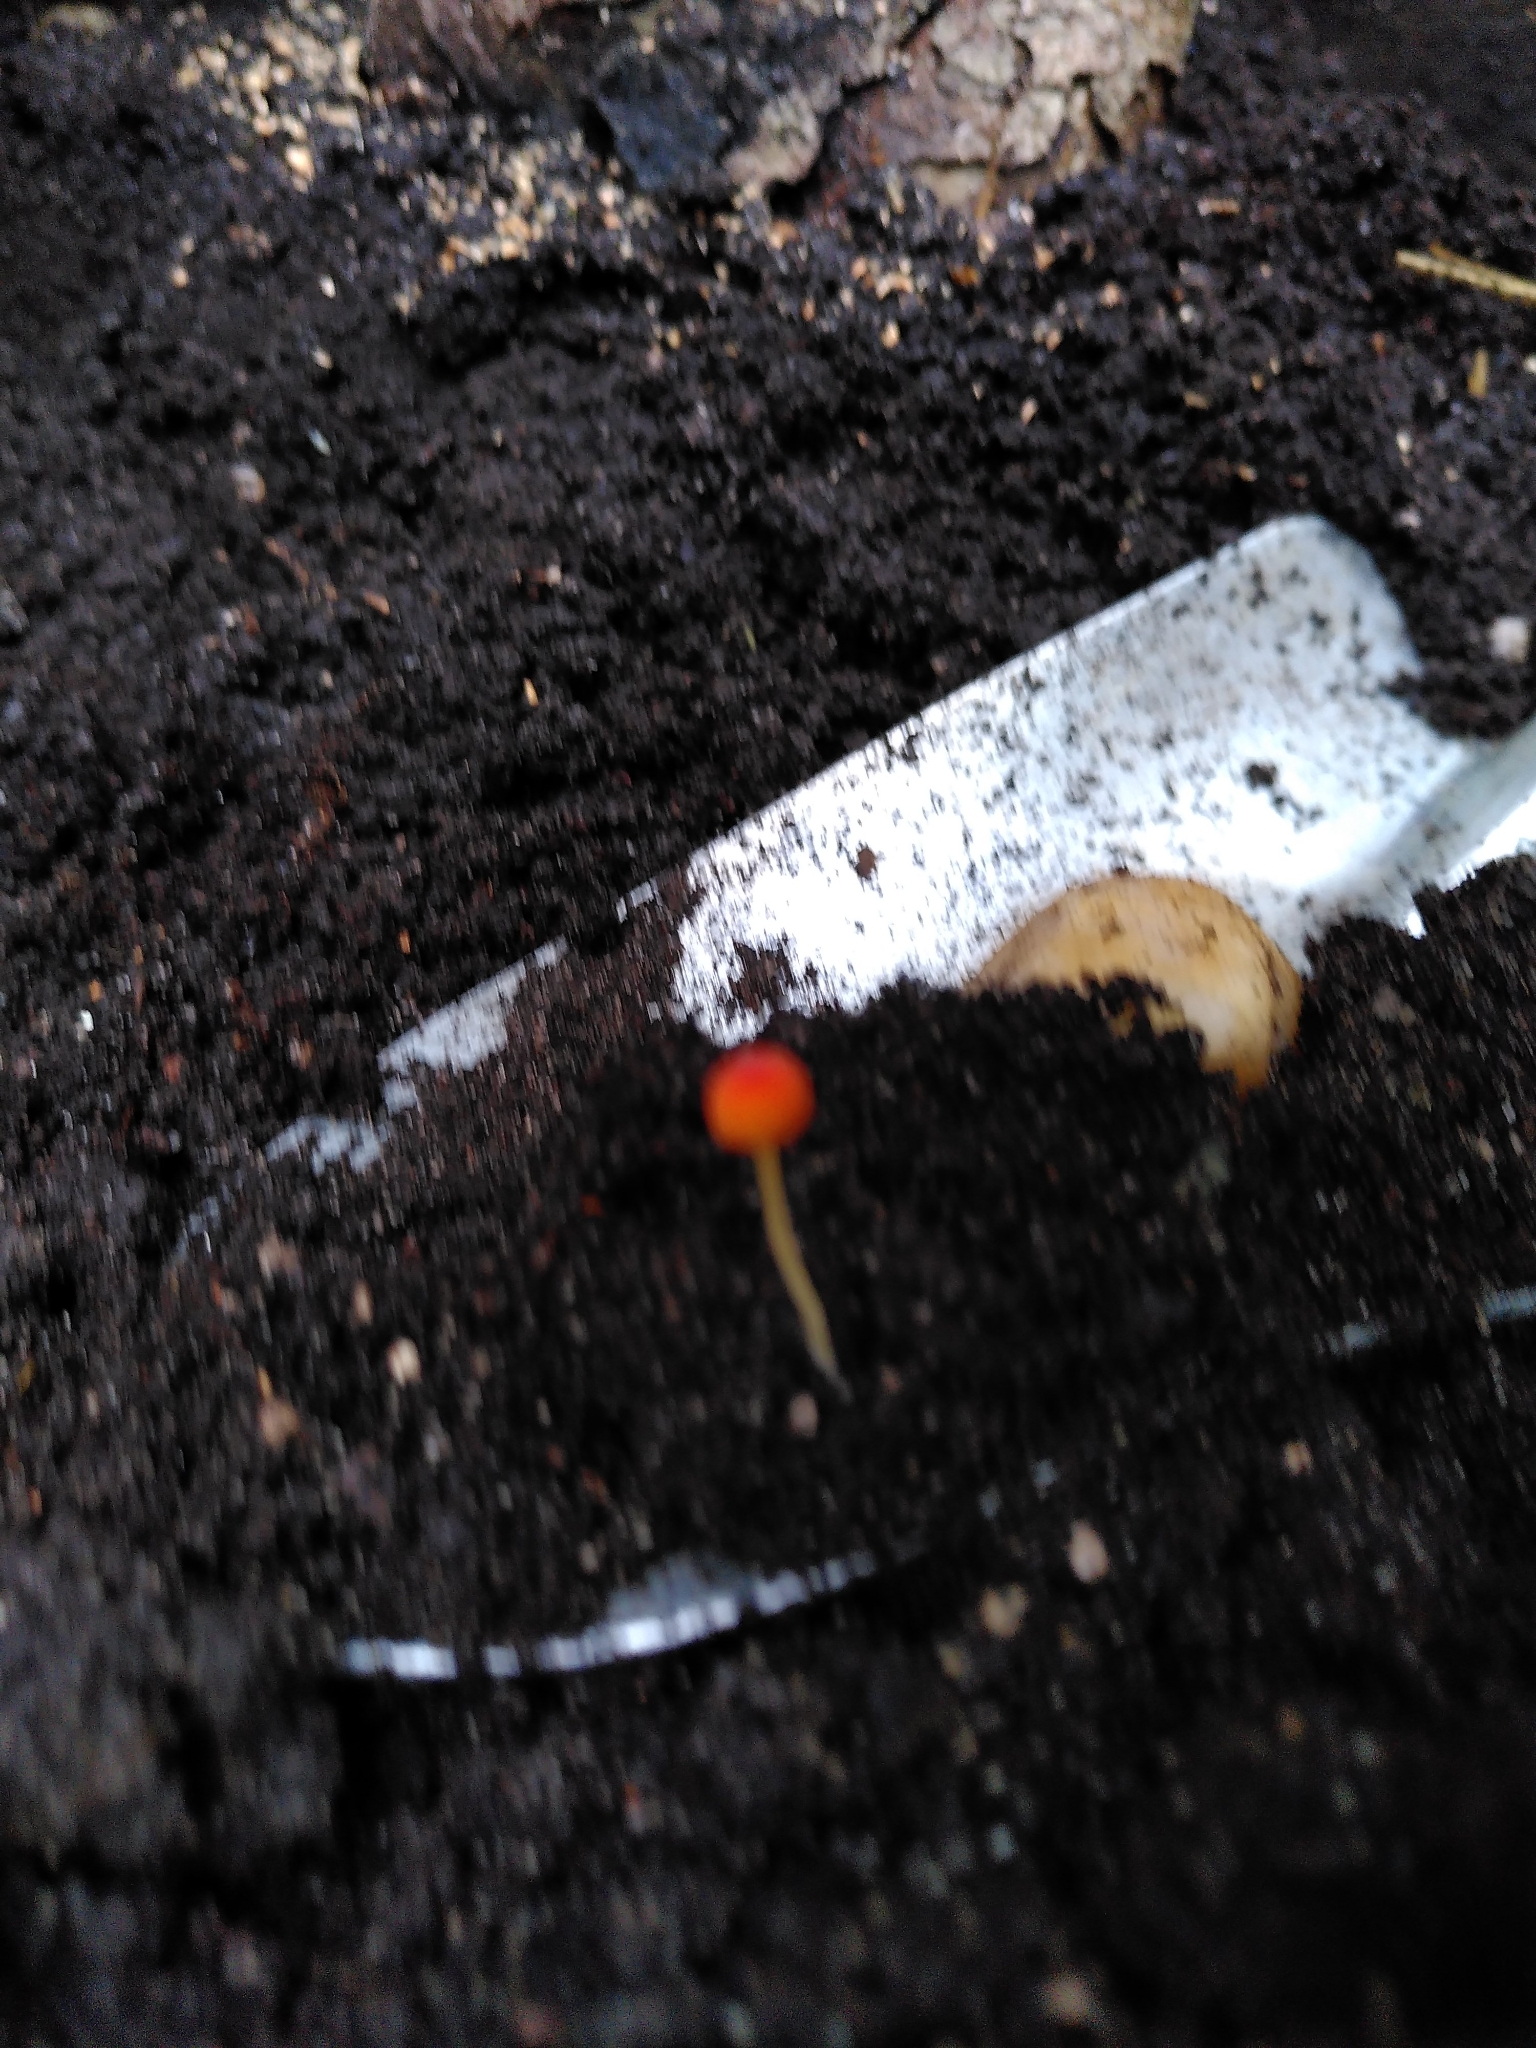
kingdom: Fungi
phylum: Basidiomycota
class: Agaricomycetes
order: Agaricales
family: Mycenaceae
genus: Mycena
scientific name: Mycena acicula
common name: Orange bonnet
